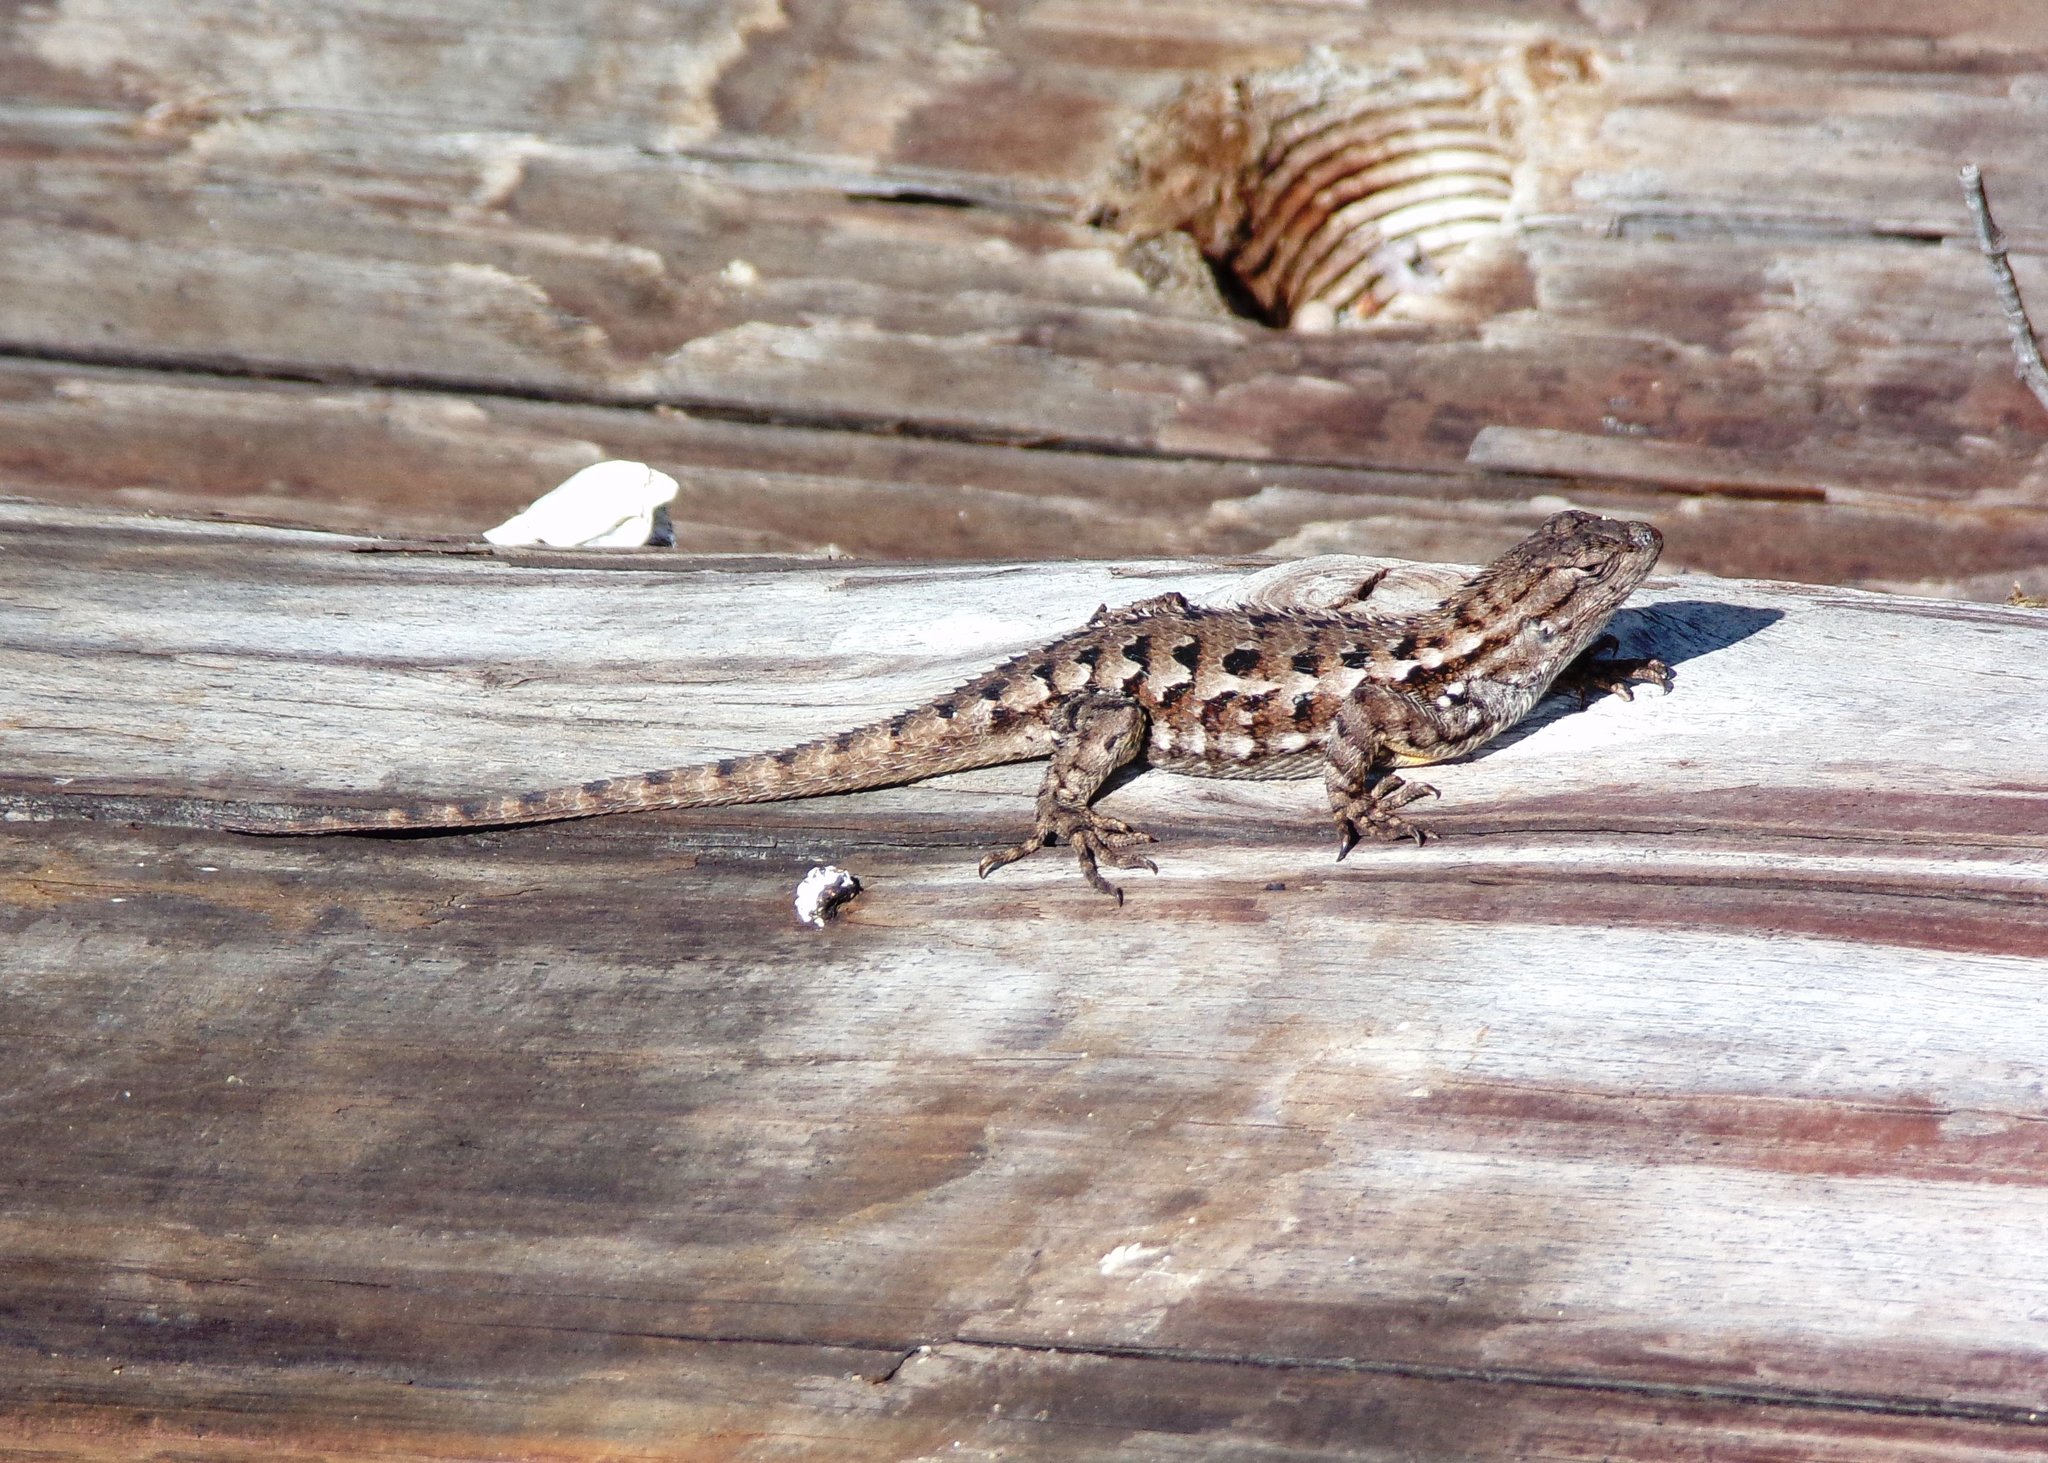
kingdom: Animalia
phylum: Chordata
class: Squamata
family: Phrynosomatidae
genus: Sceloporus
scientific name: Sceloporus occidentalis
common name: Western fence lizard
